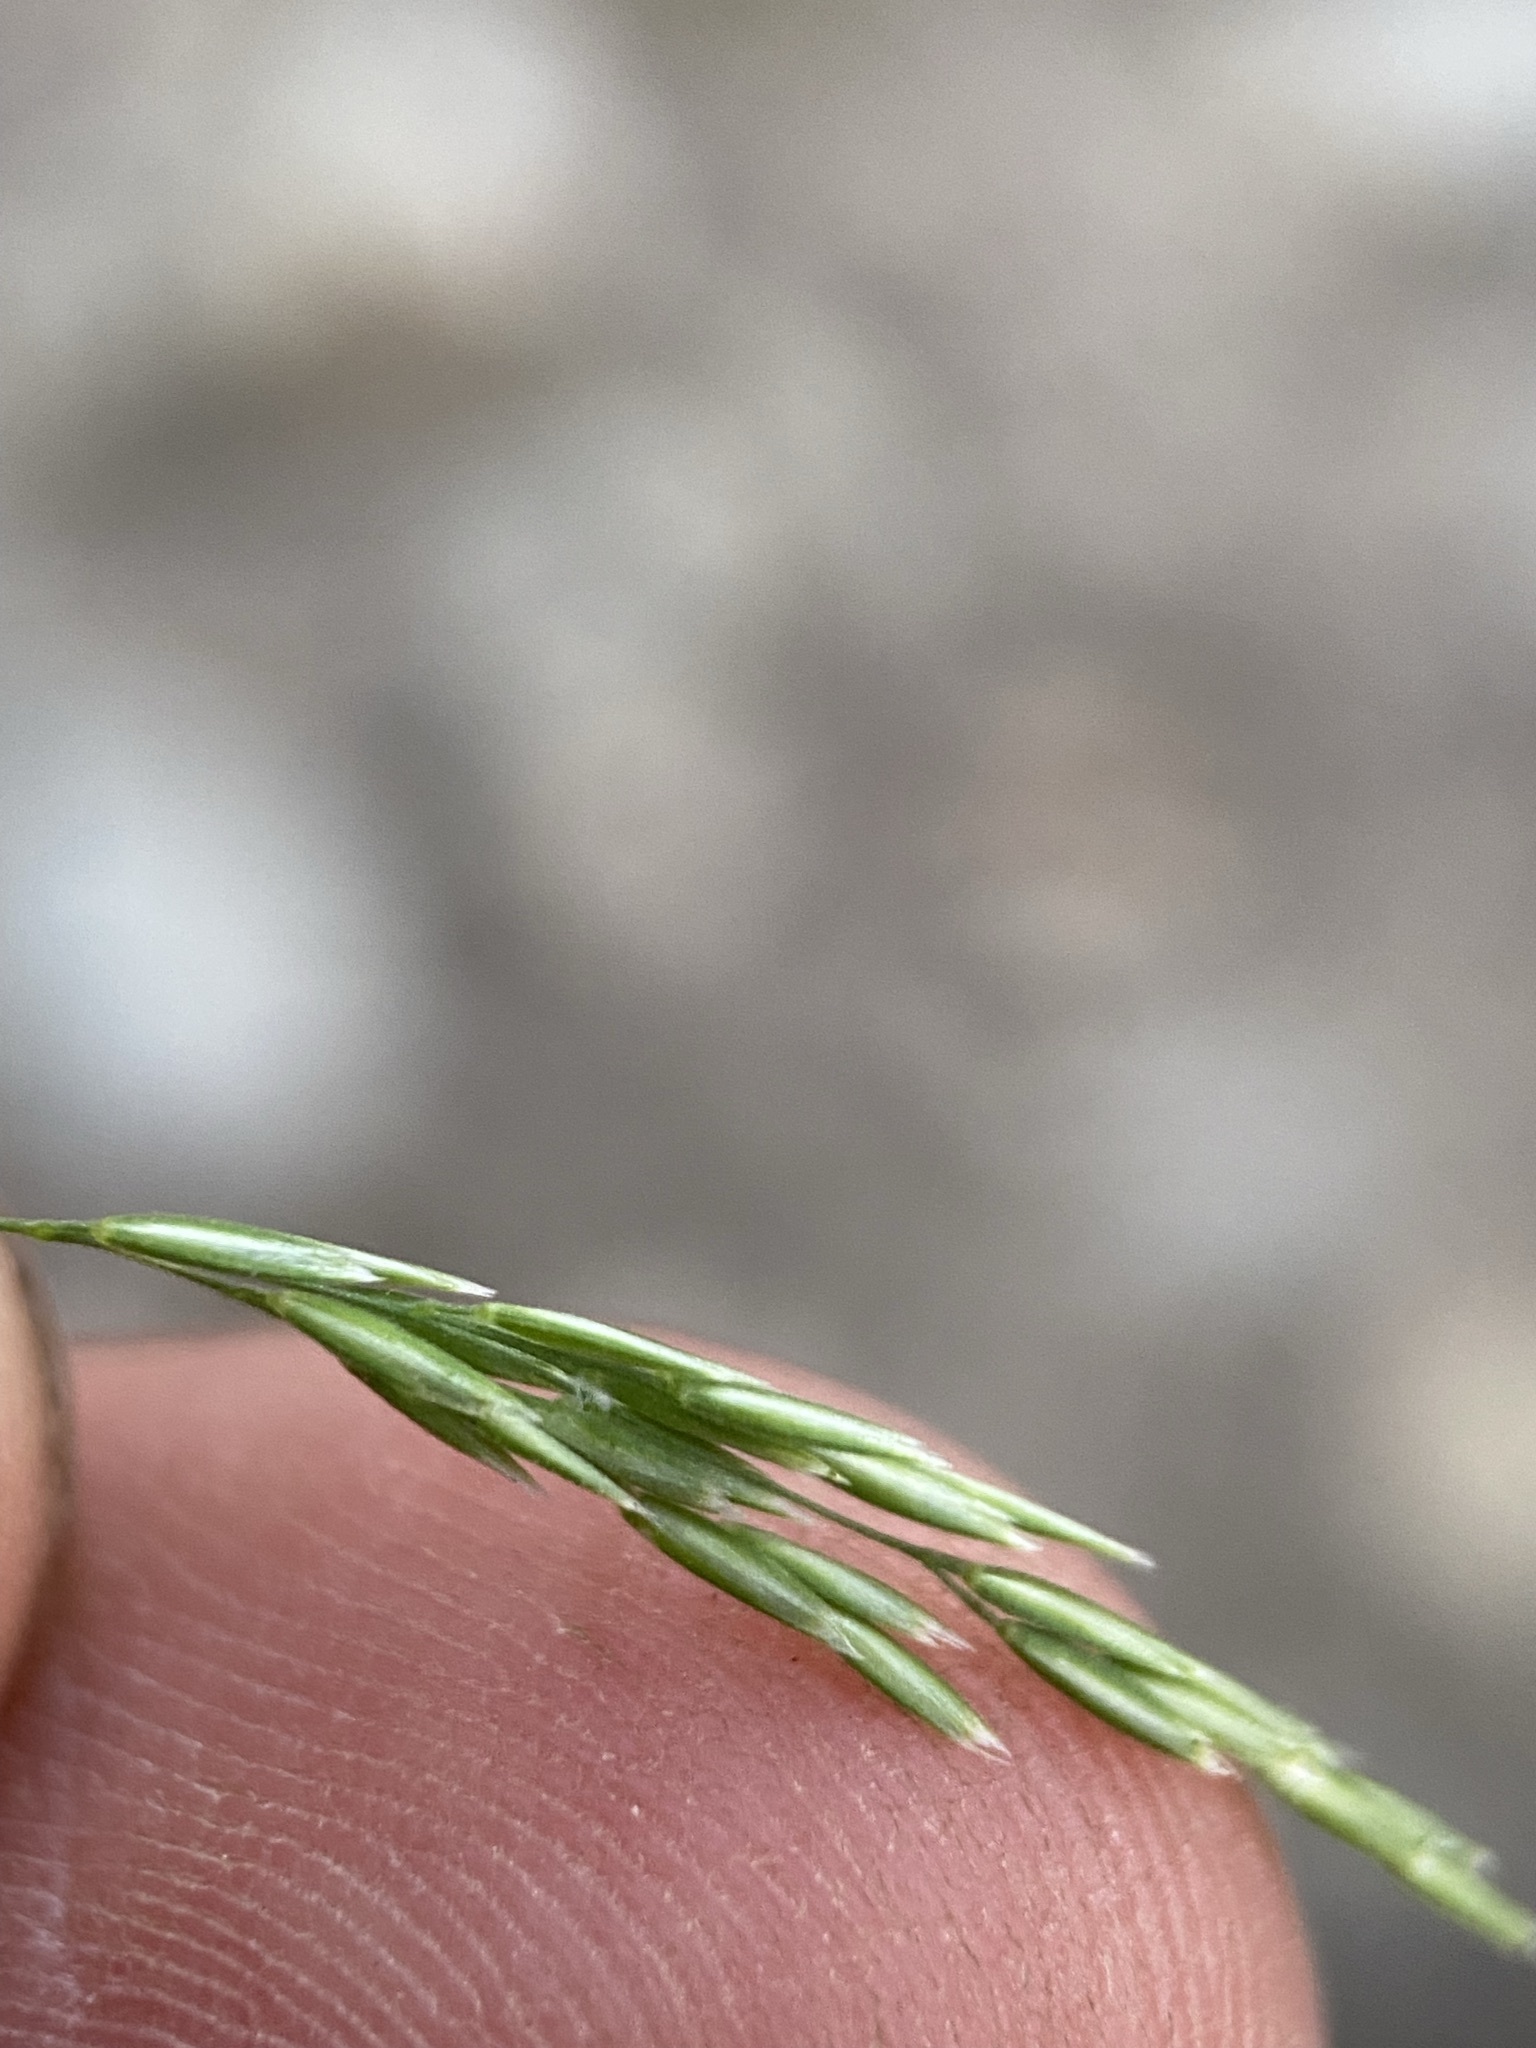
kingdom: Plantae
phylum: Tracheophyta
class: Liliopsida
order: Poales
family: Poaceae
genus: Cinna
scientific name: Cinna latifolia
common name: Drooping woodreed
